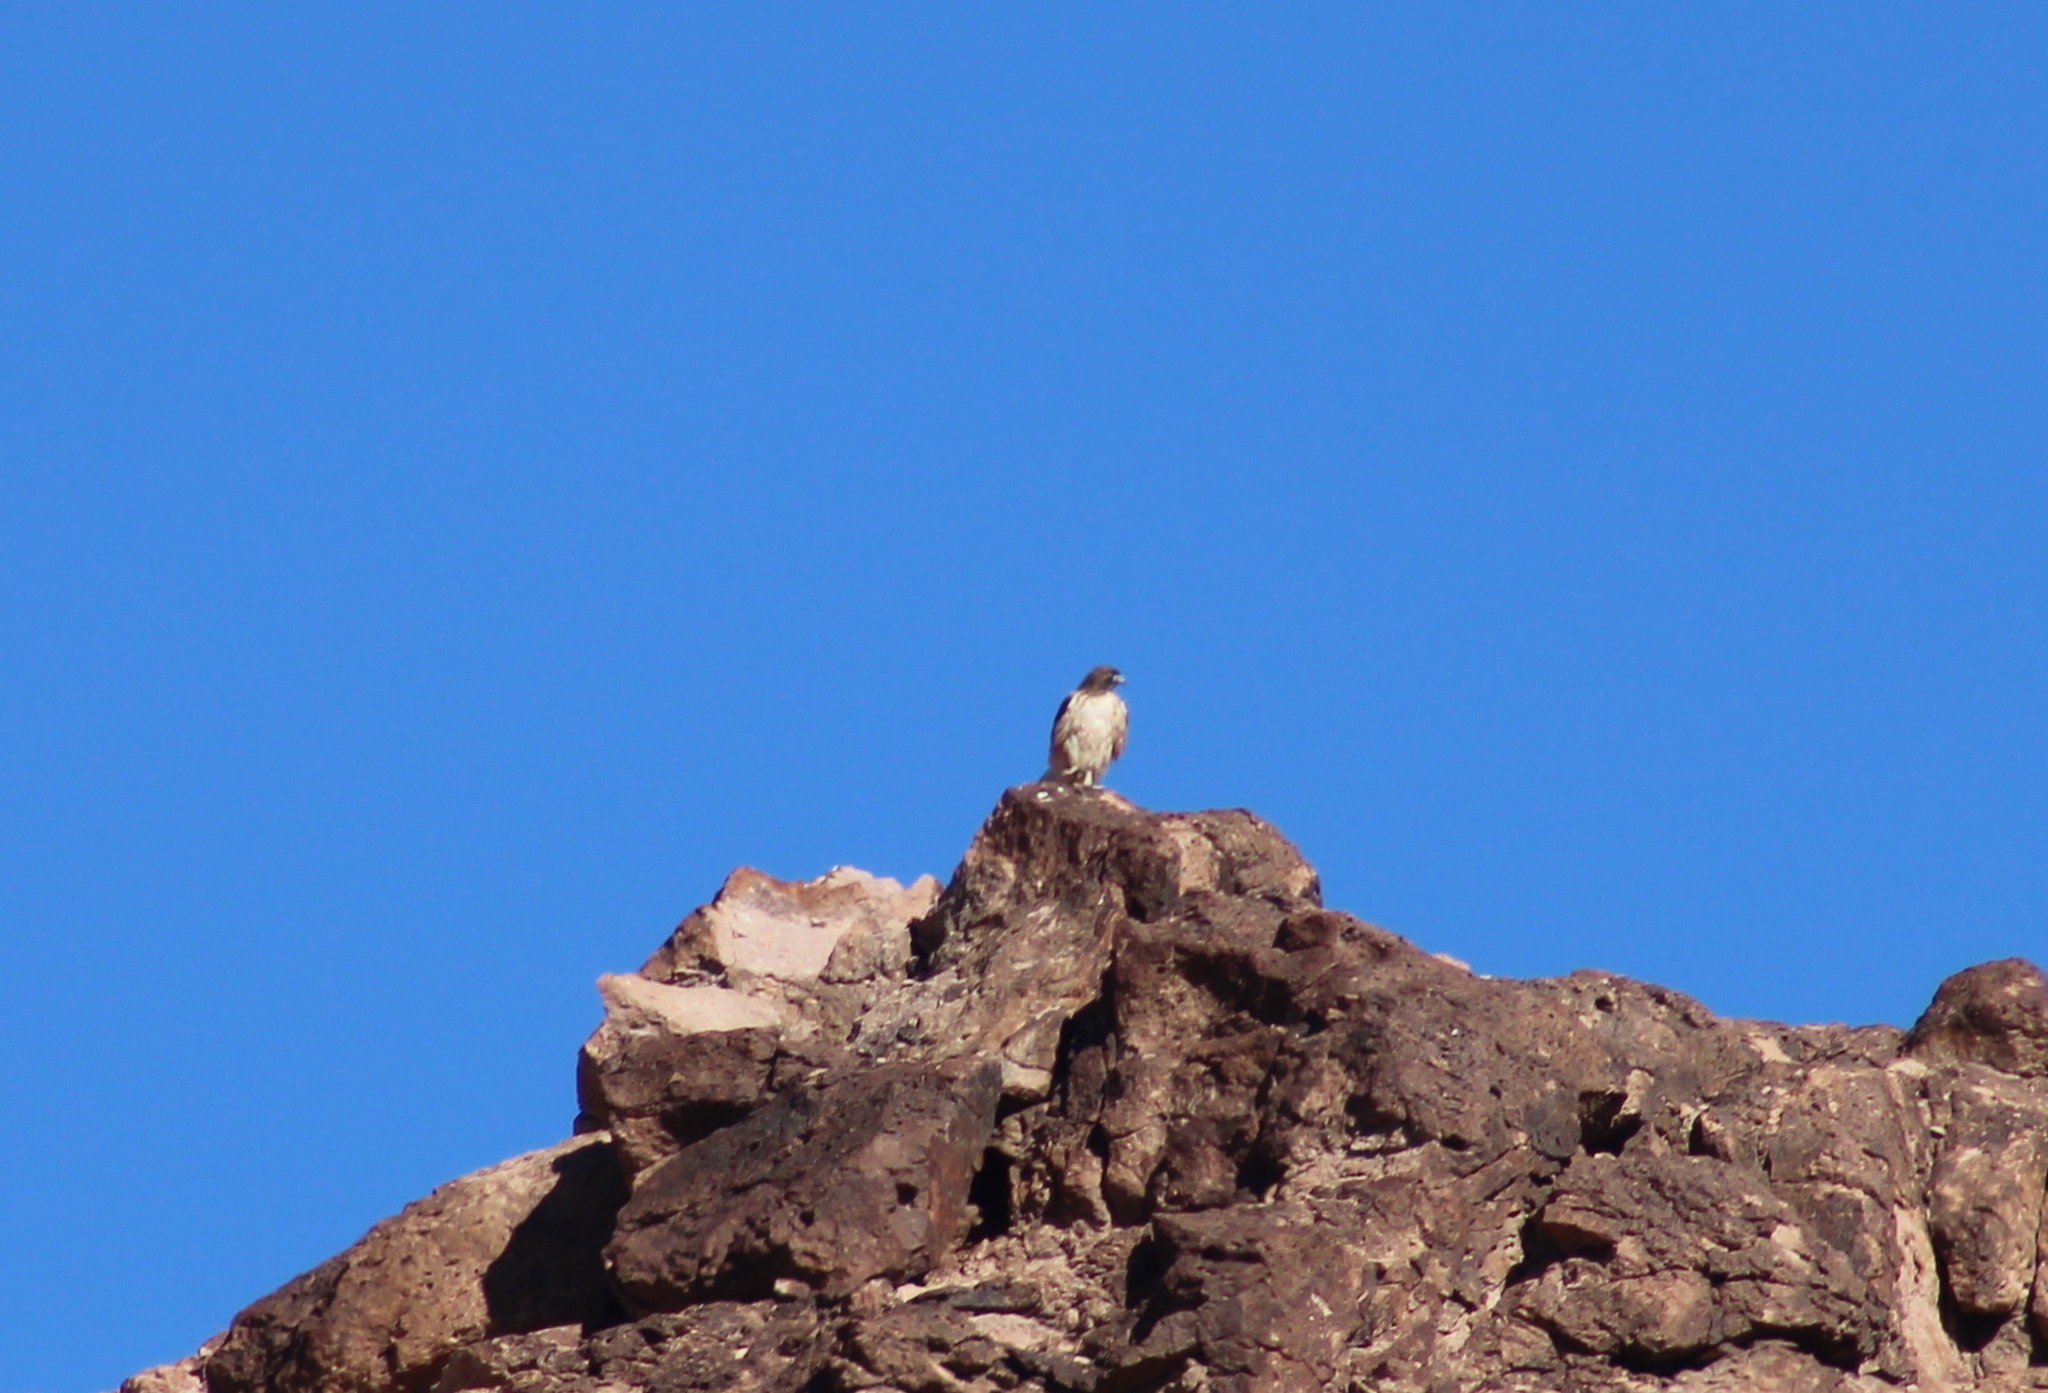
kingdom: Animalia
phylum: Chordata
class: Aves
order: Accipitriformes
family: Accipitridae
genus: Buteo
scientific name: Buteo jamaicensis
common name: Red-tailed hawk
